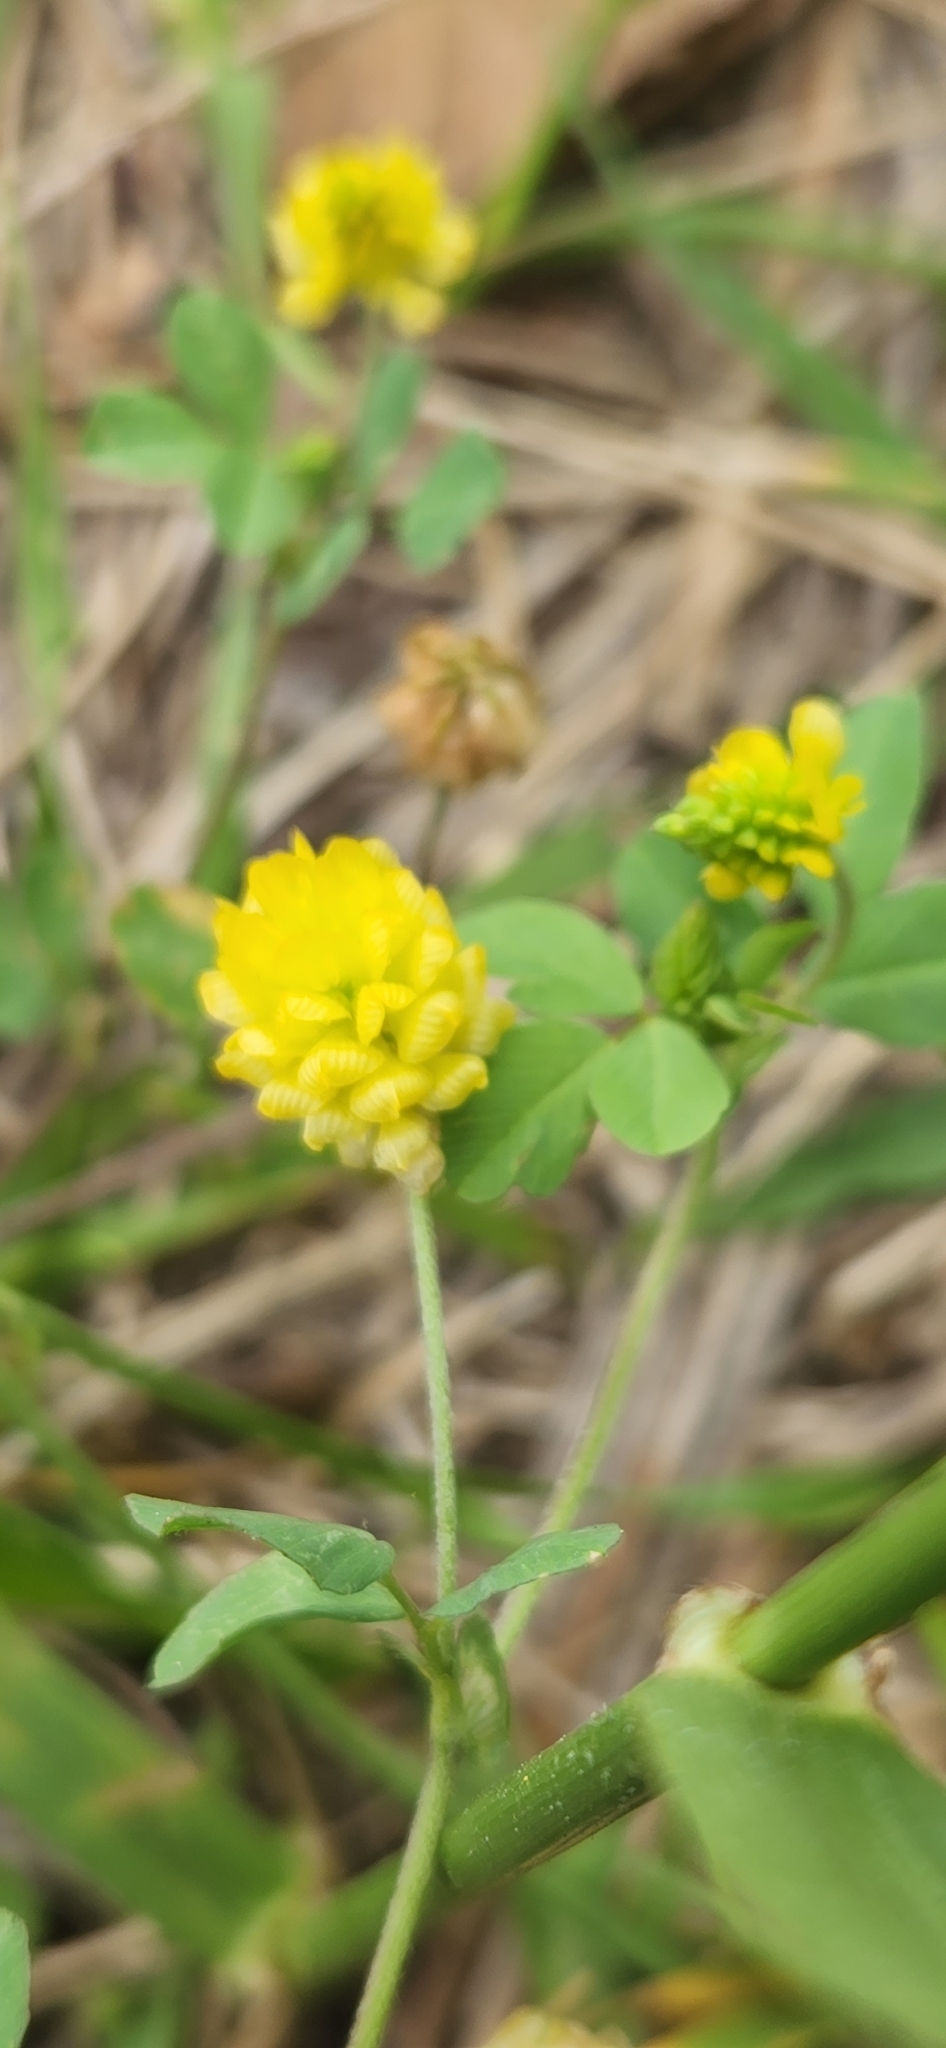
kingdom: Plantae
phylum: Tracheophyta
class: Magnoliopsida
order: Fabales
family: Fabaceae
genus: Trifolium
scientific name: Trifolium campestre
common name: Field clover
